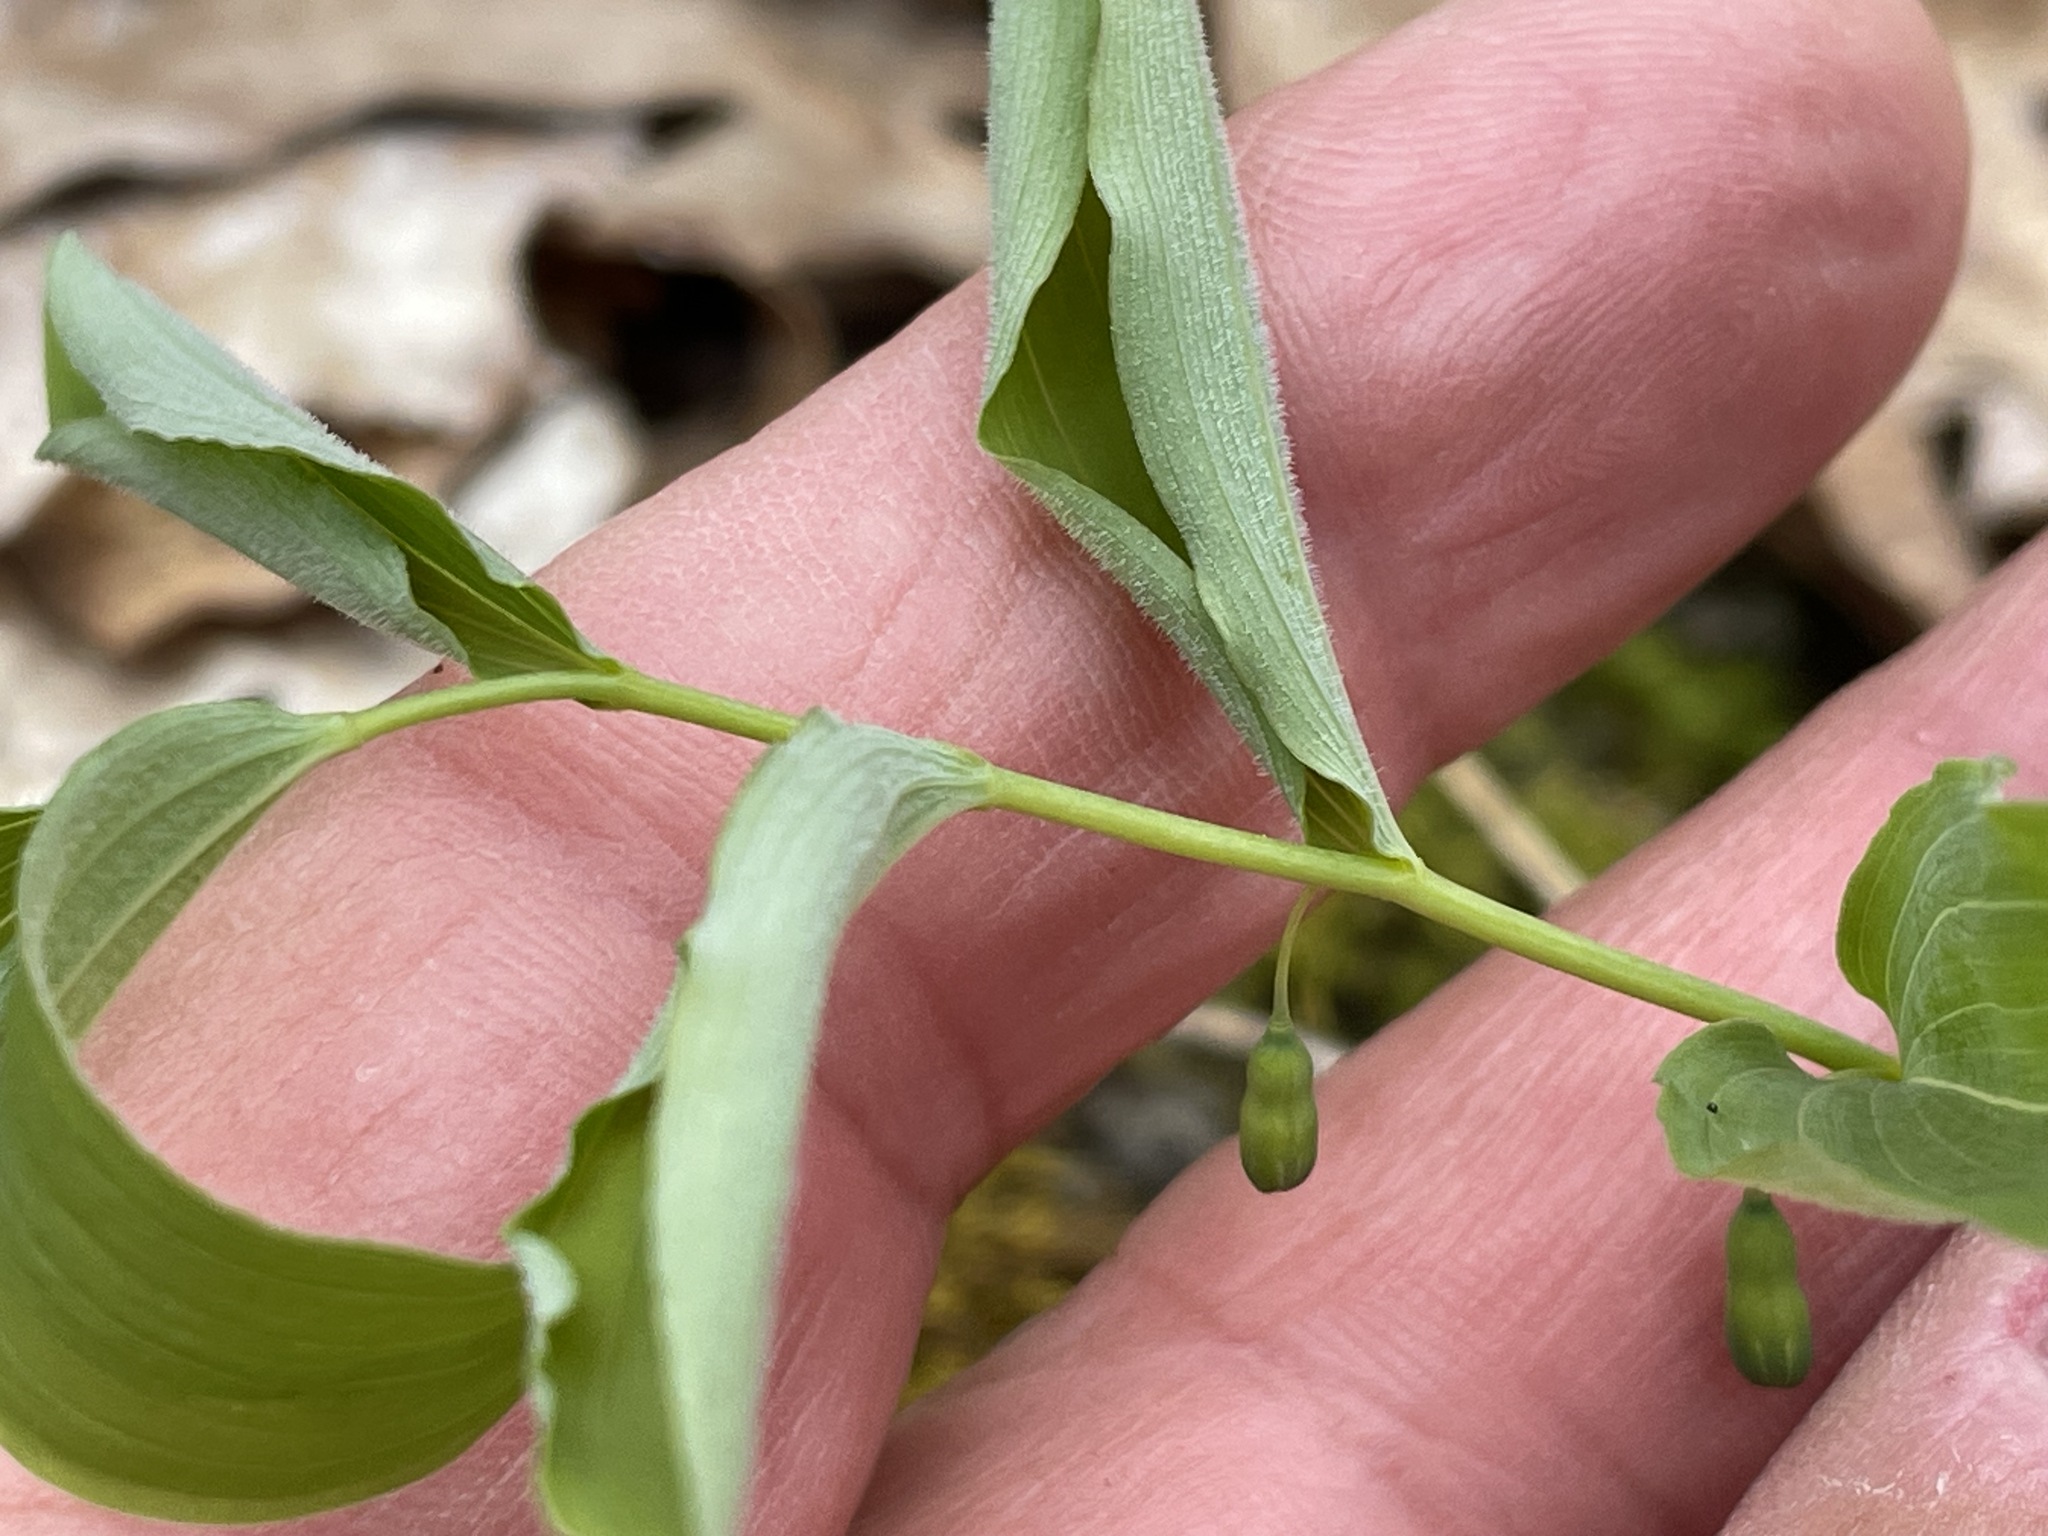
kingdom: Plantae
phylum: Tracheophyta
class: Liliopsida
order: Asparagales
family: Asparagaceae
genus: Polygonatum
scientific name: Polygonatum pubescens
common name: Downy solomon's seal
